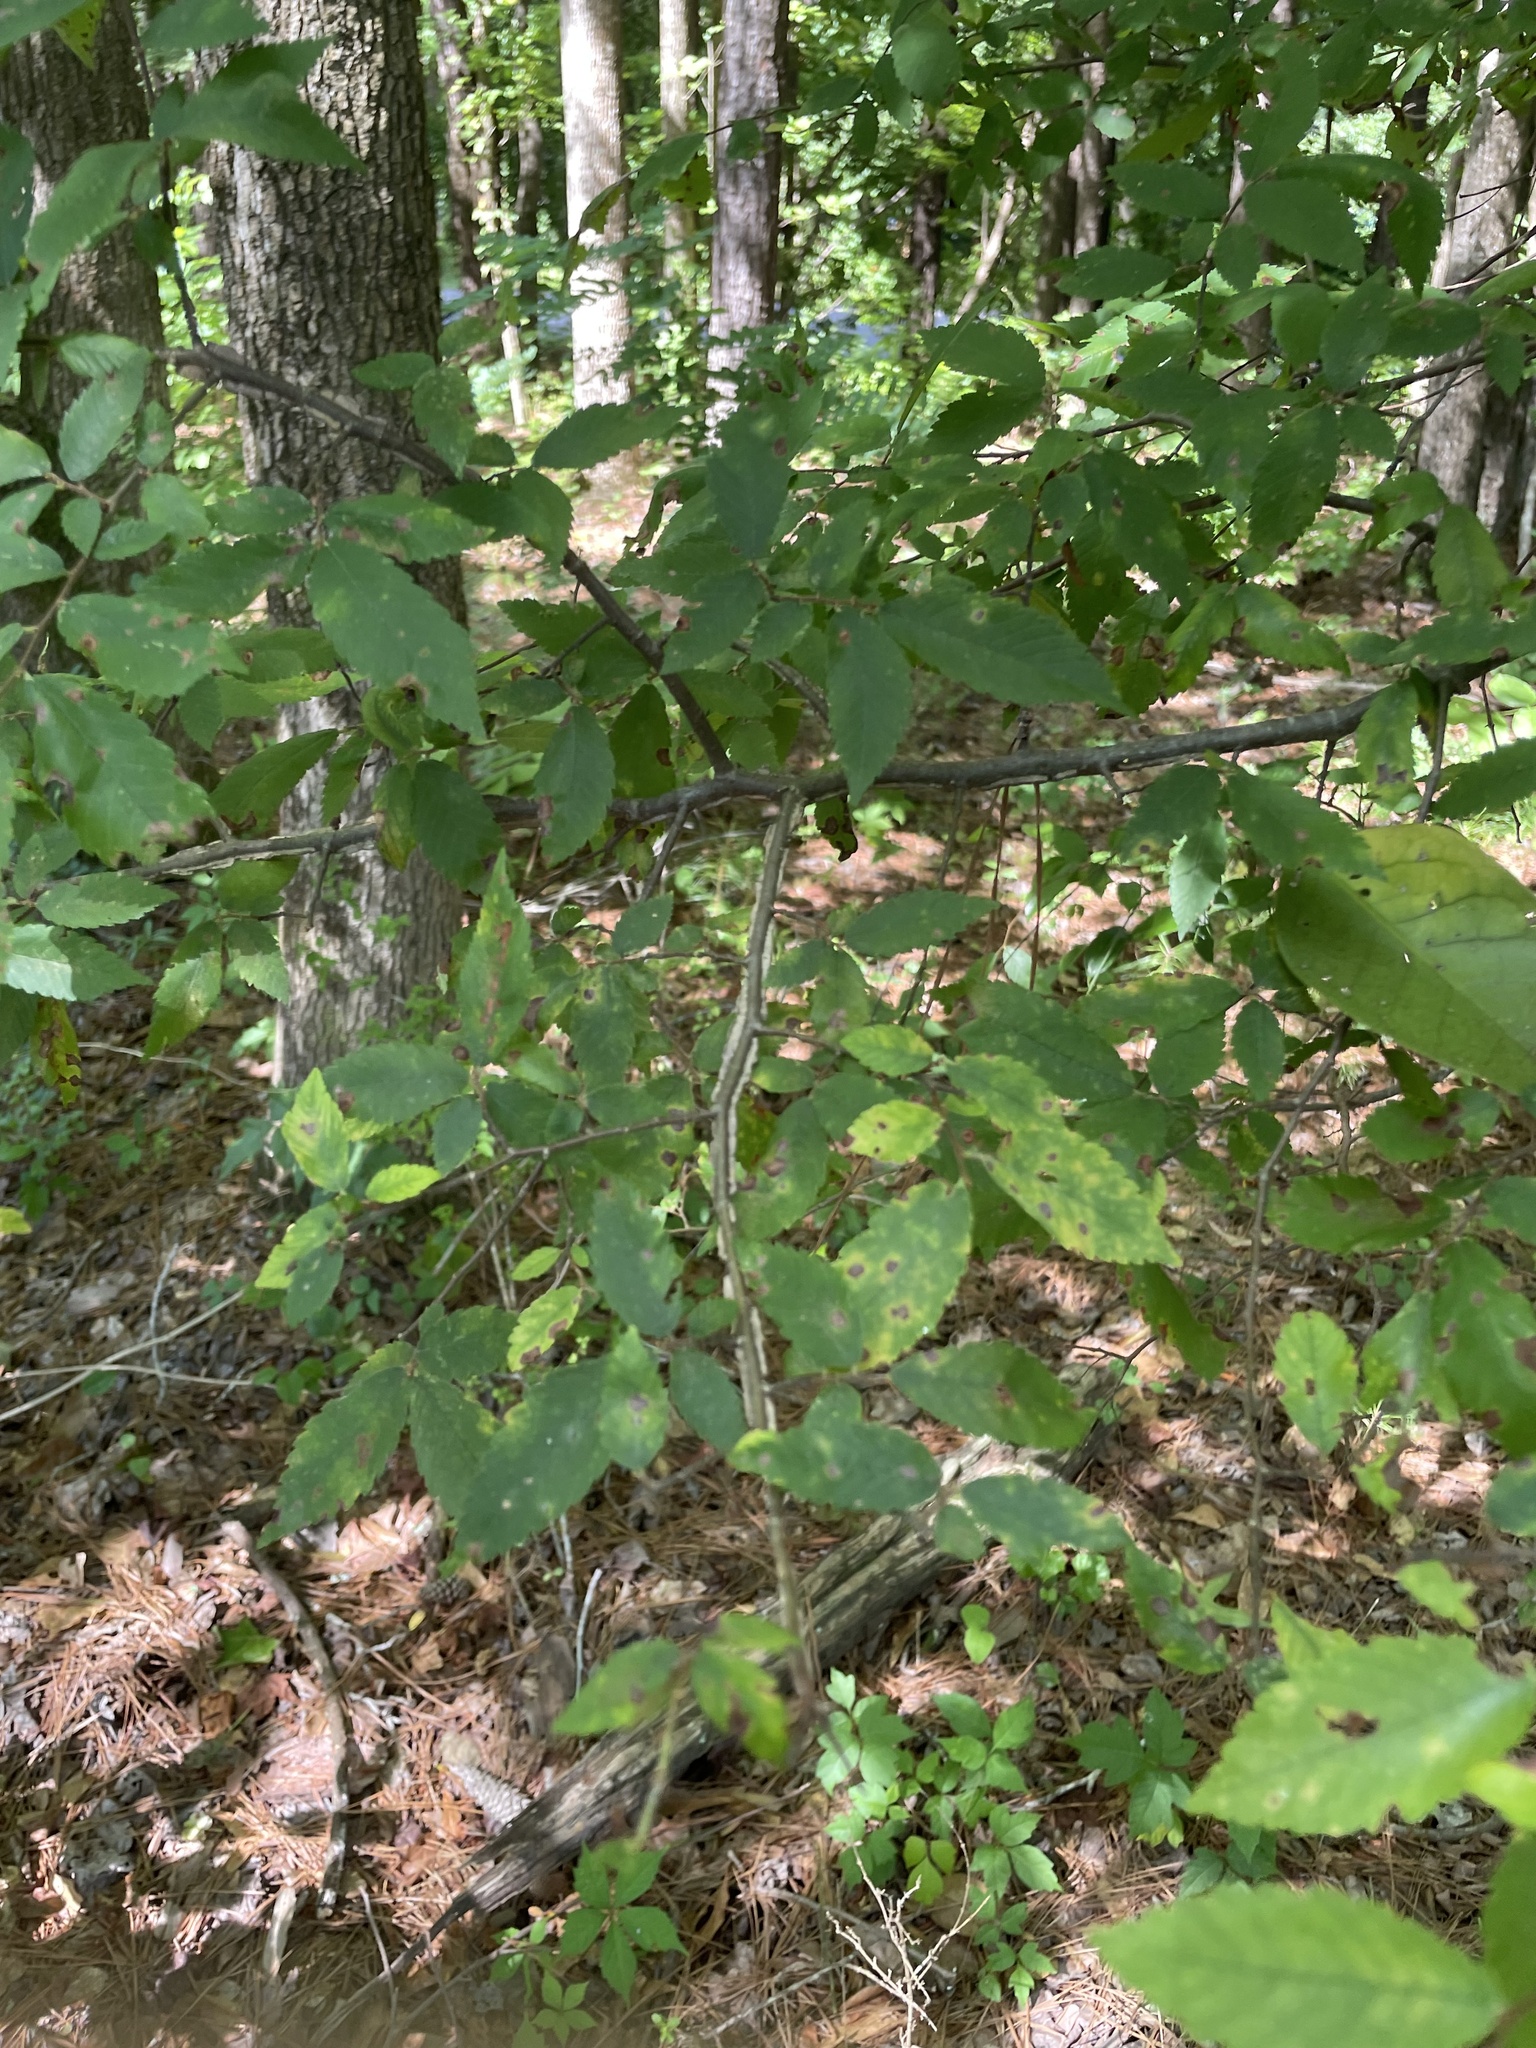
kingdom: Plantae
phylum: Tracheophyta
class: Magnoliopsida
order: Rosales
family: Ulmaceae
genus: Ulmus
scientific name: Ulmus alata
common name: Winged elm
